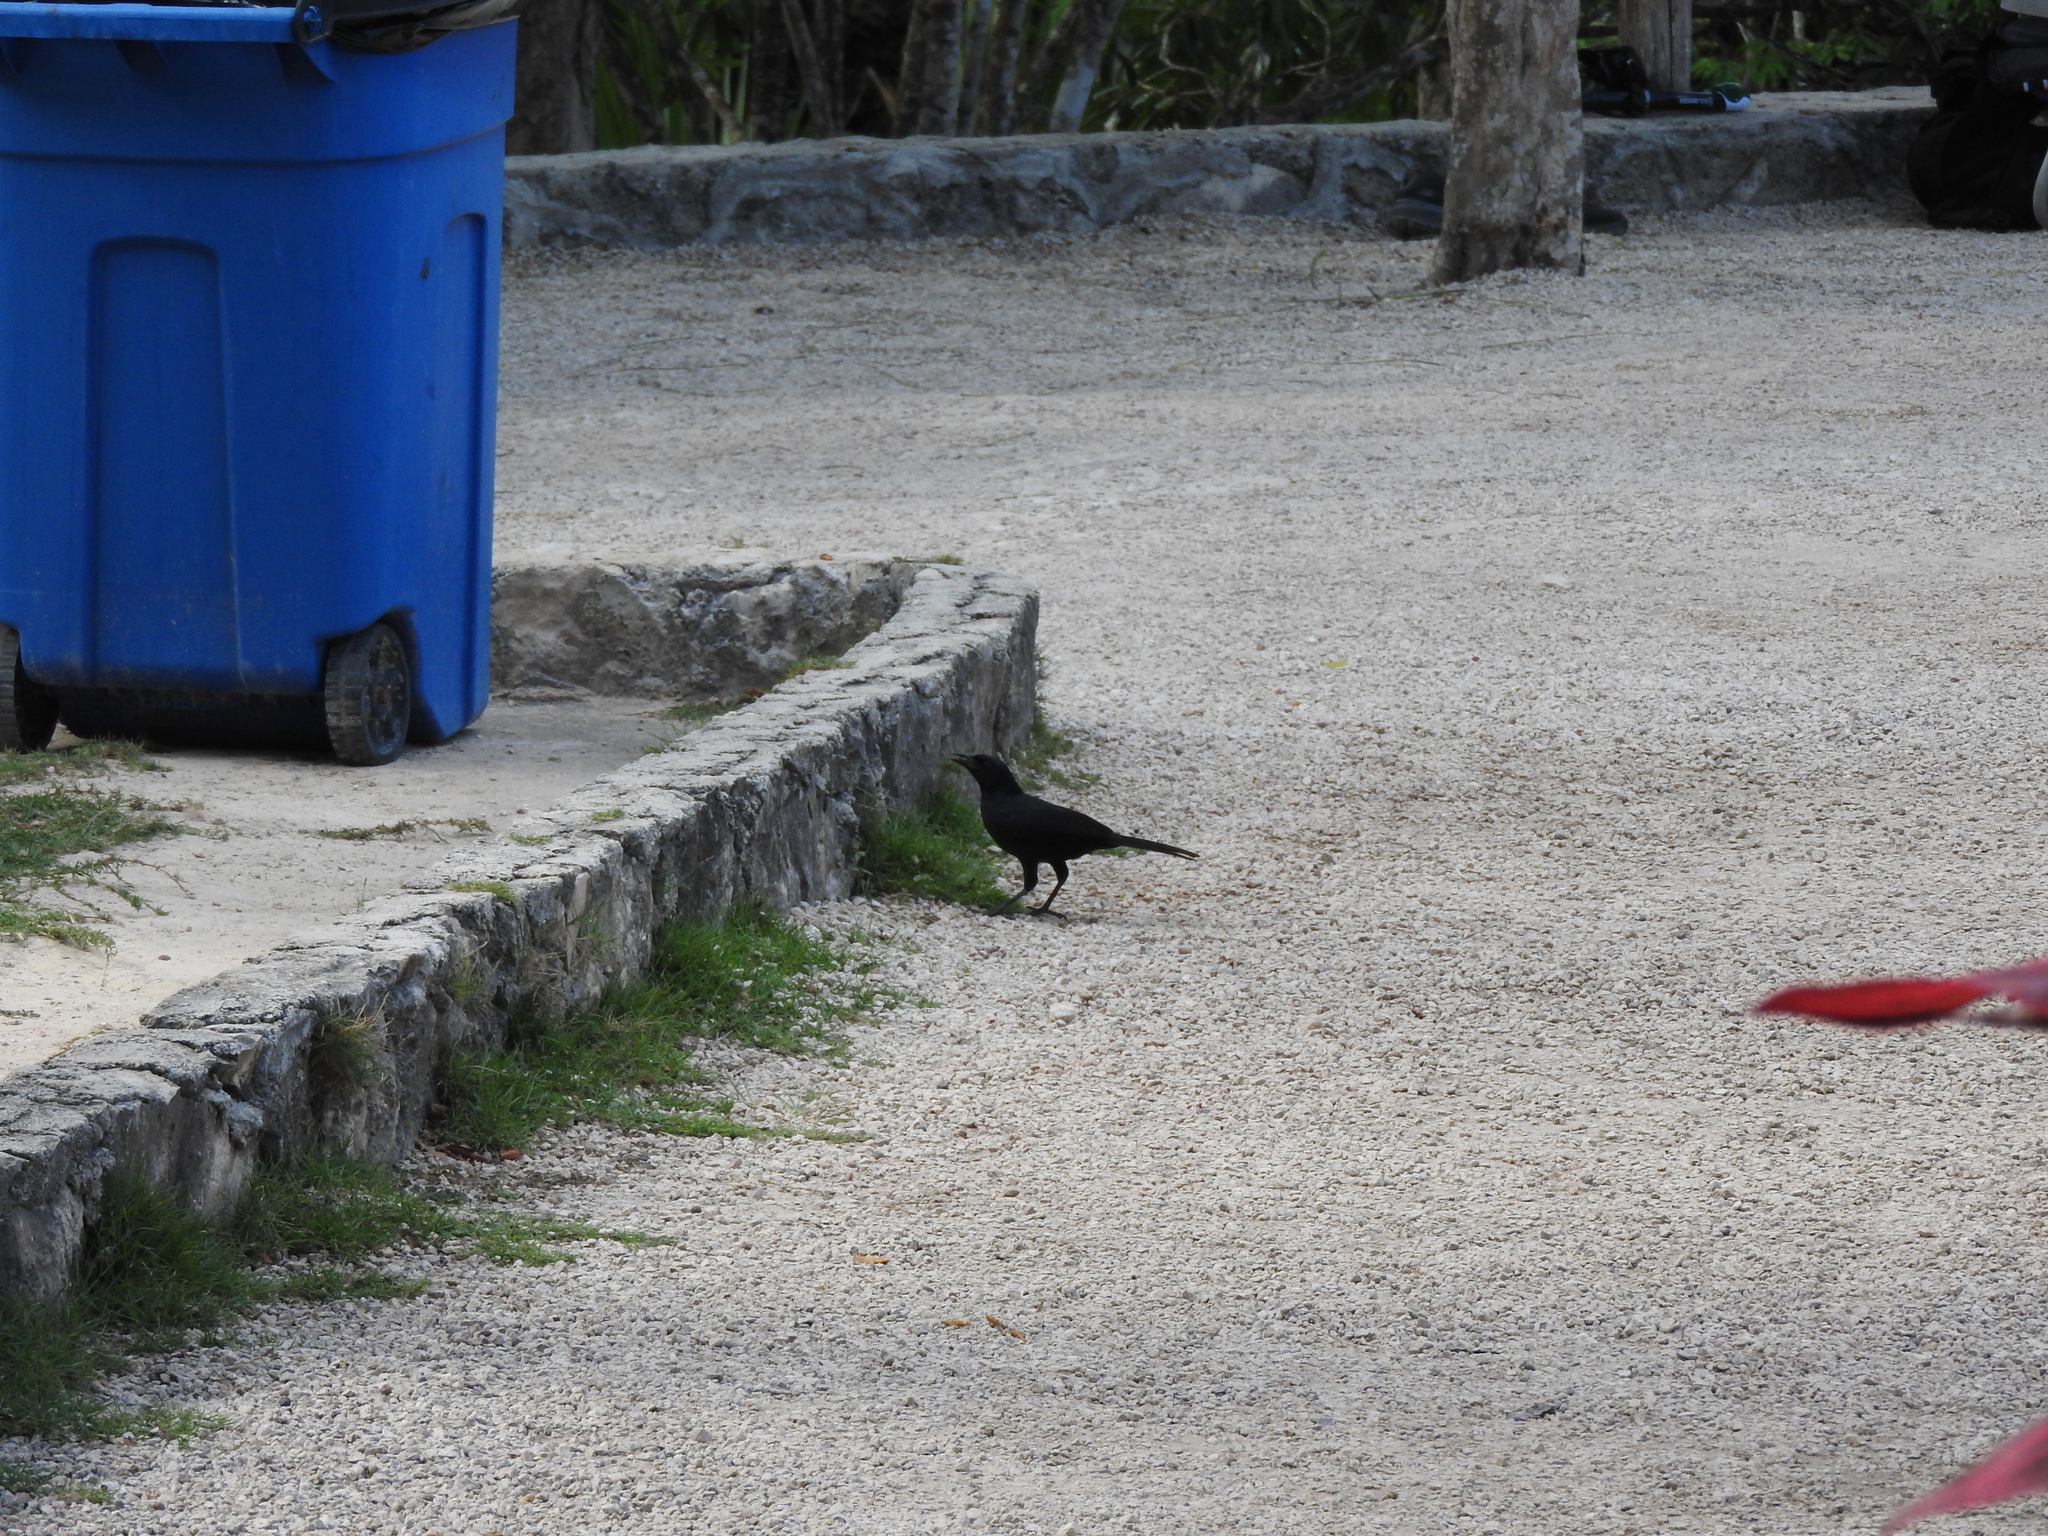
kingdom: Animalia
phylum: Chordata
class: Aves
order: Passeriformes
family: Icteridae
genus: Quiscalus
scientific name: Quiscalus mexicanus
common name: Great-tailed grackle
